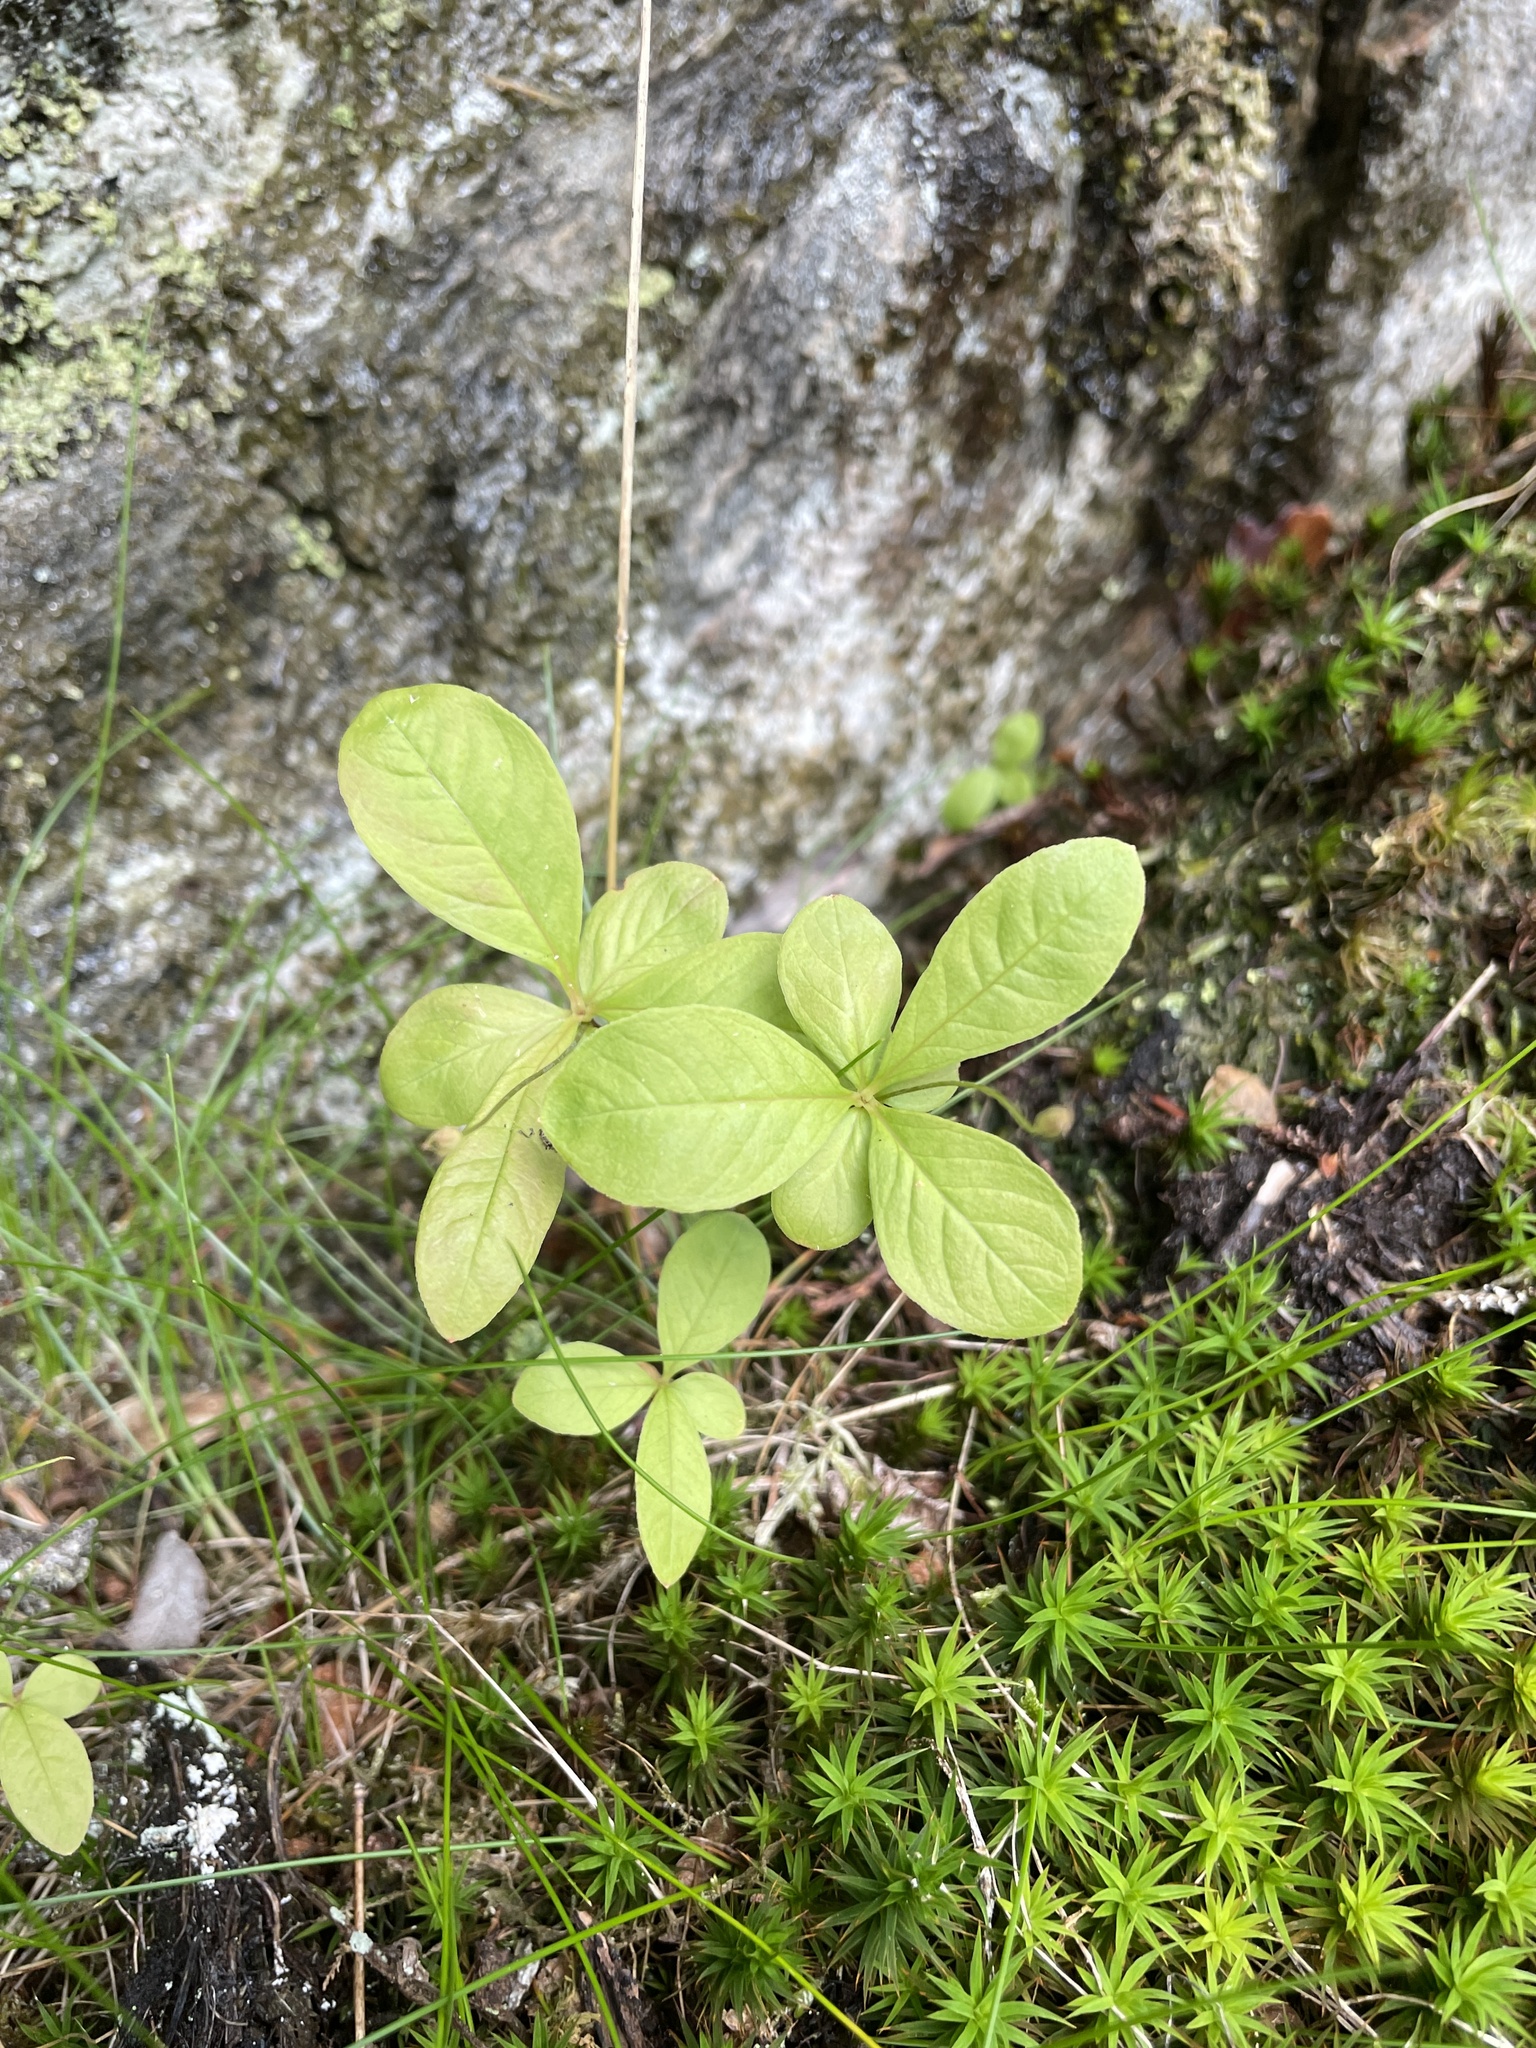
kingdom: Plantae
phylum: Tracheophyta
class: Magnoliopsida
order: Ericales
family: Primulaceae
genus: Lysimachia
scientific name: Lysimachia europaea
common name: Arctic starflower
